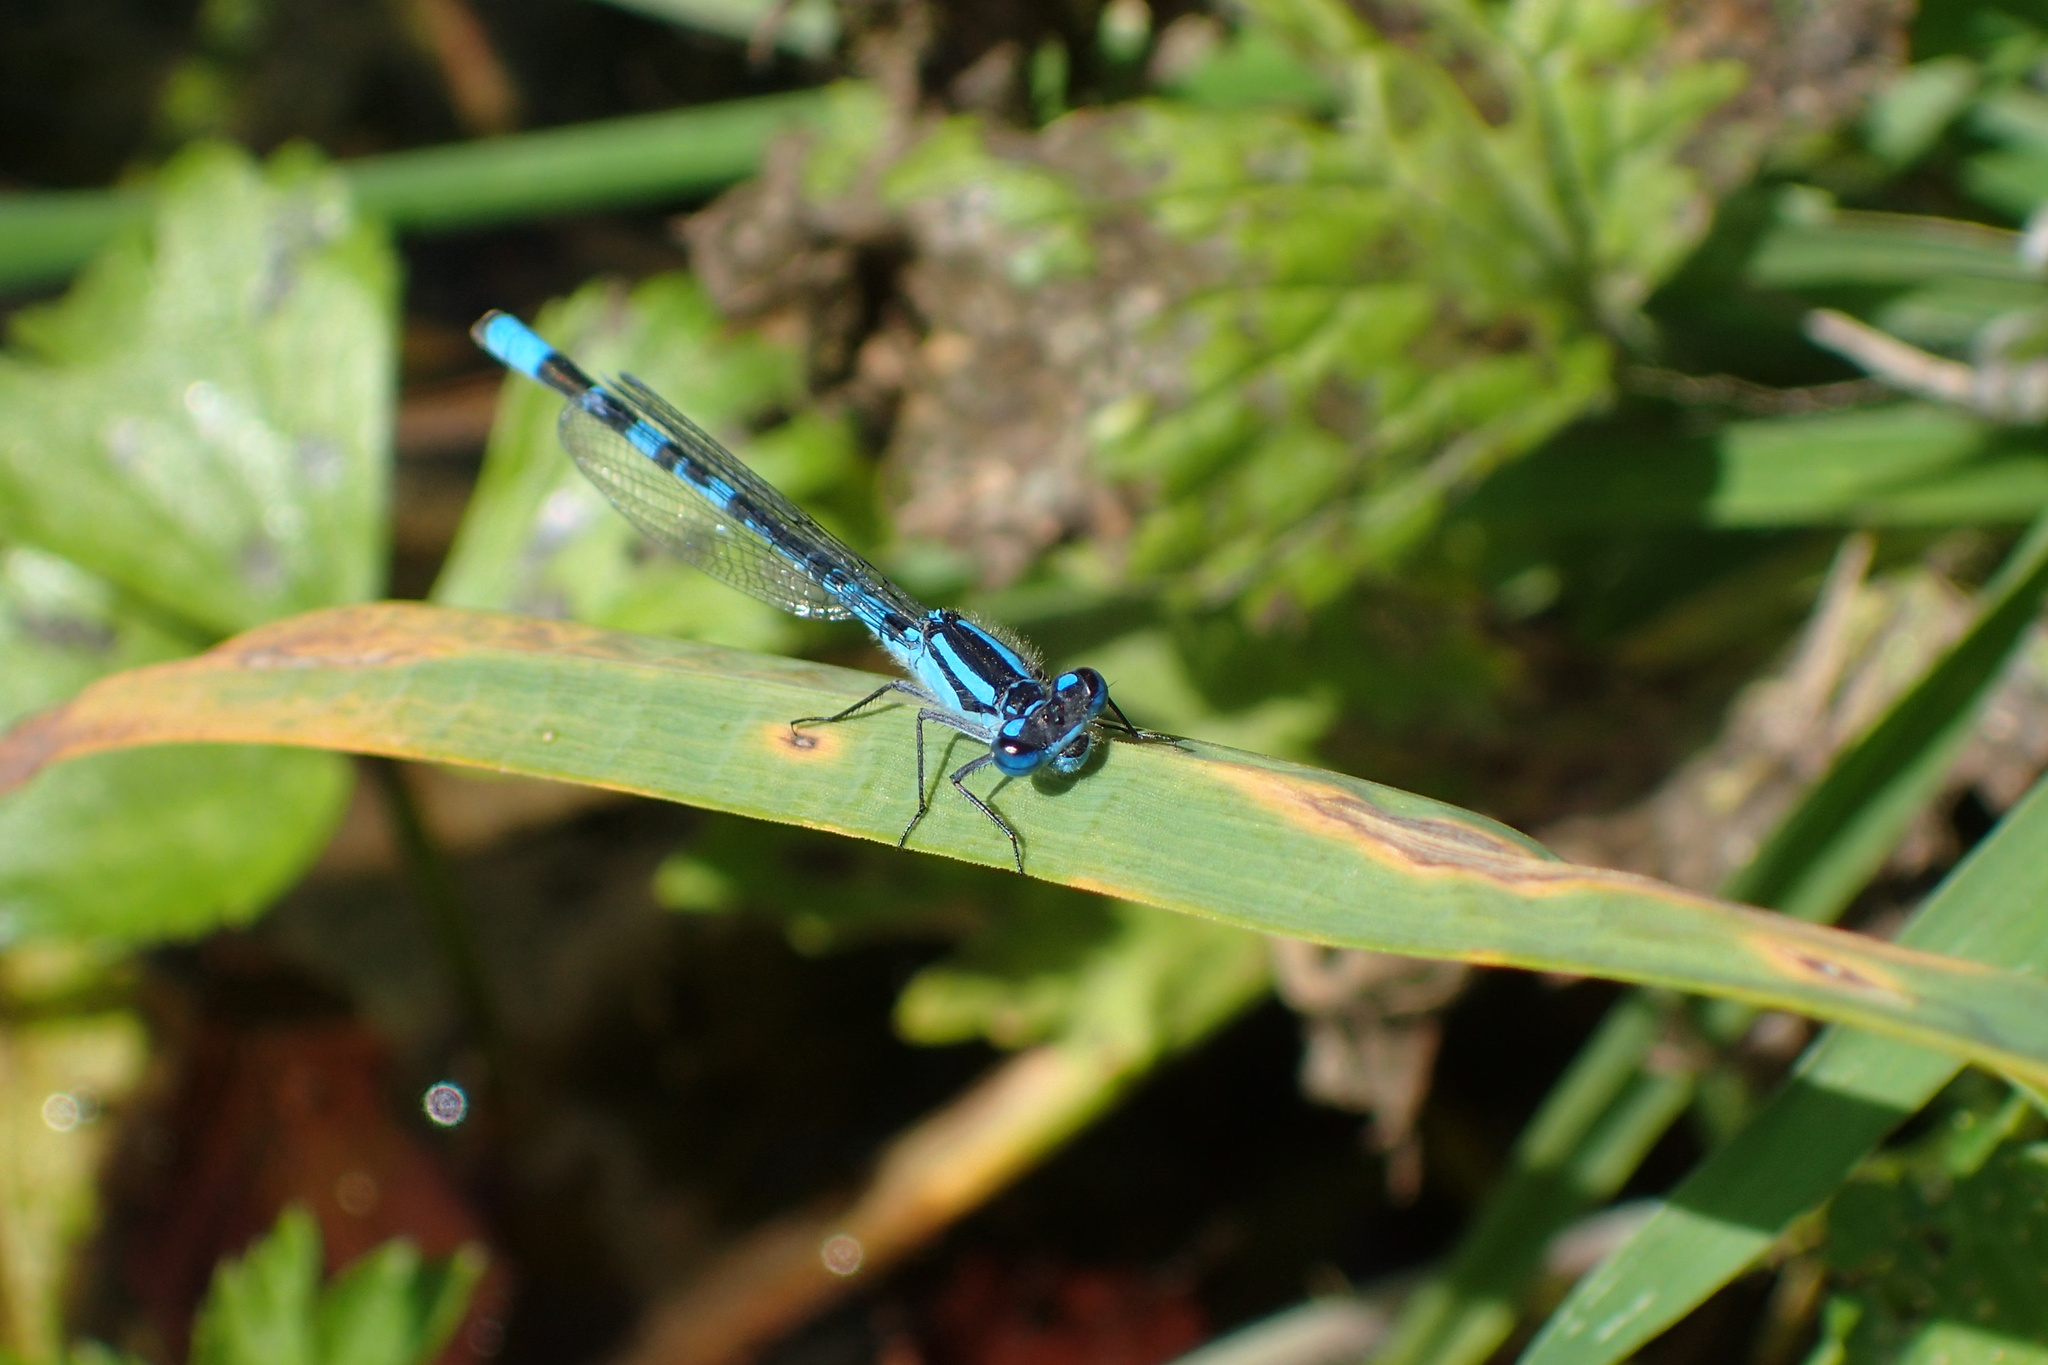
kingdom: Animalia
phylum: Arthropoda
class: Insecta
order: Odonata
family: Coenagrionidae
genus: Enallagma
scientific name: Enallagma cyathigerum
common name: Common blue damselfly
